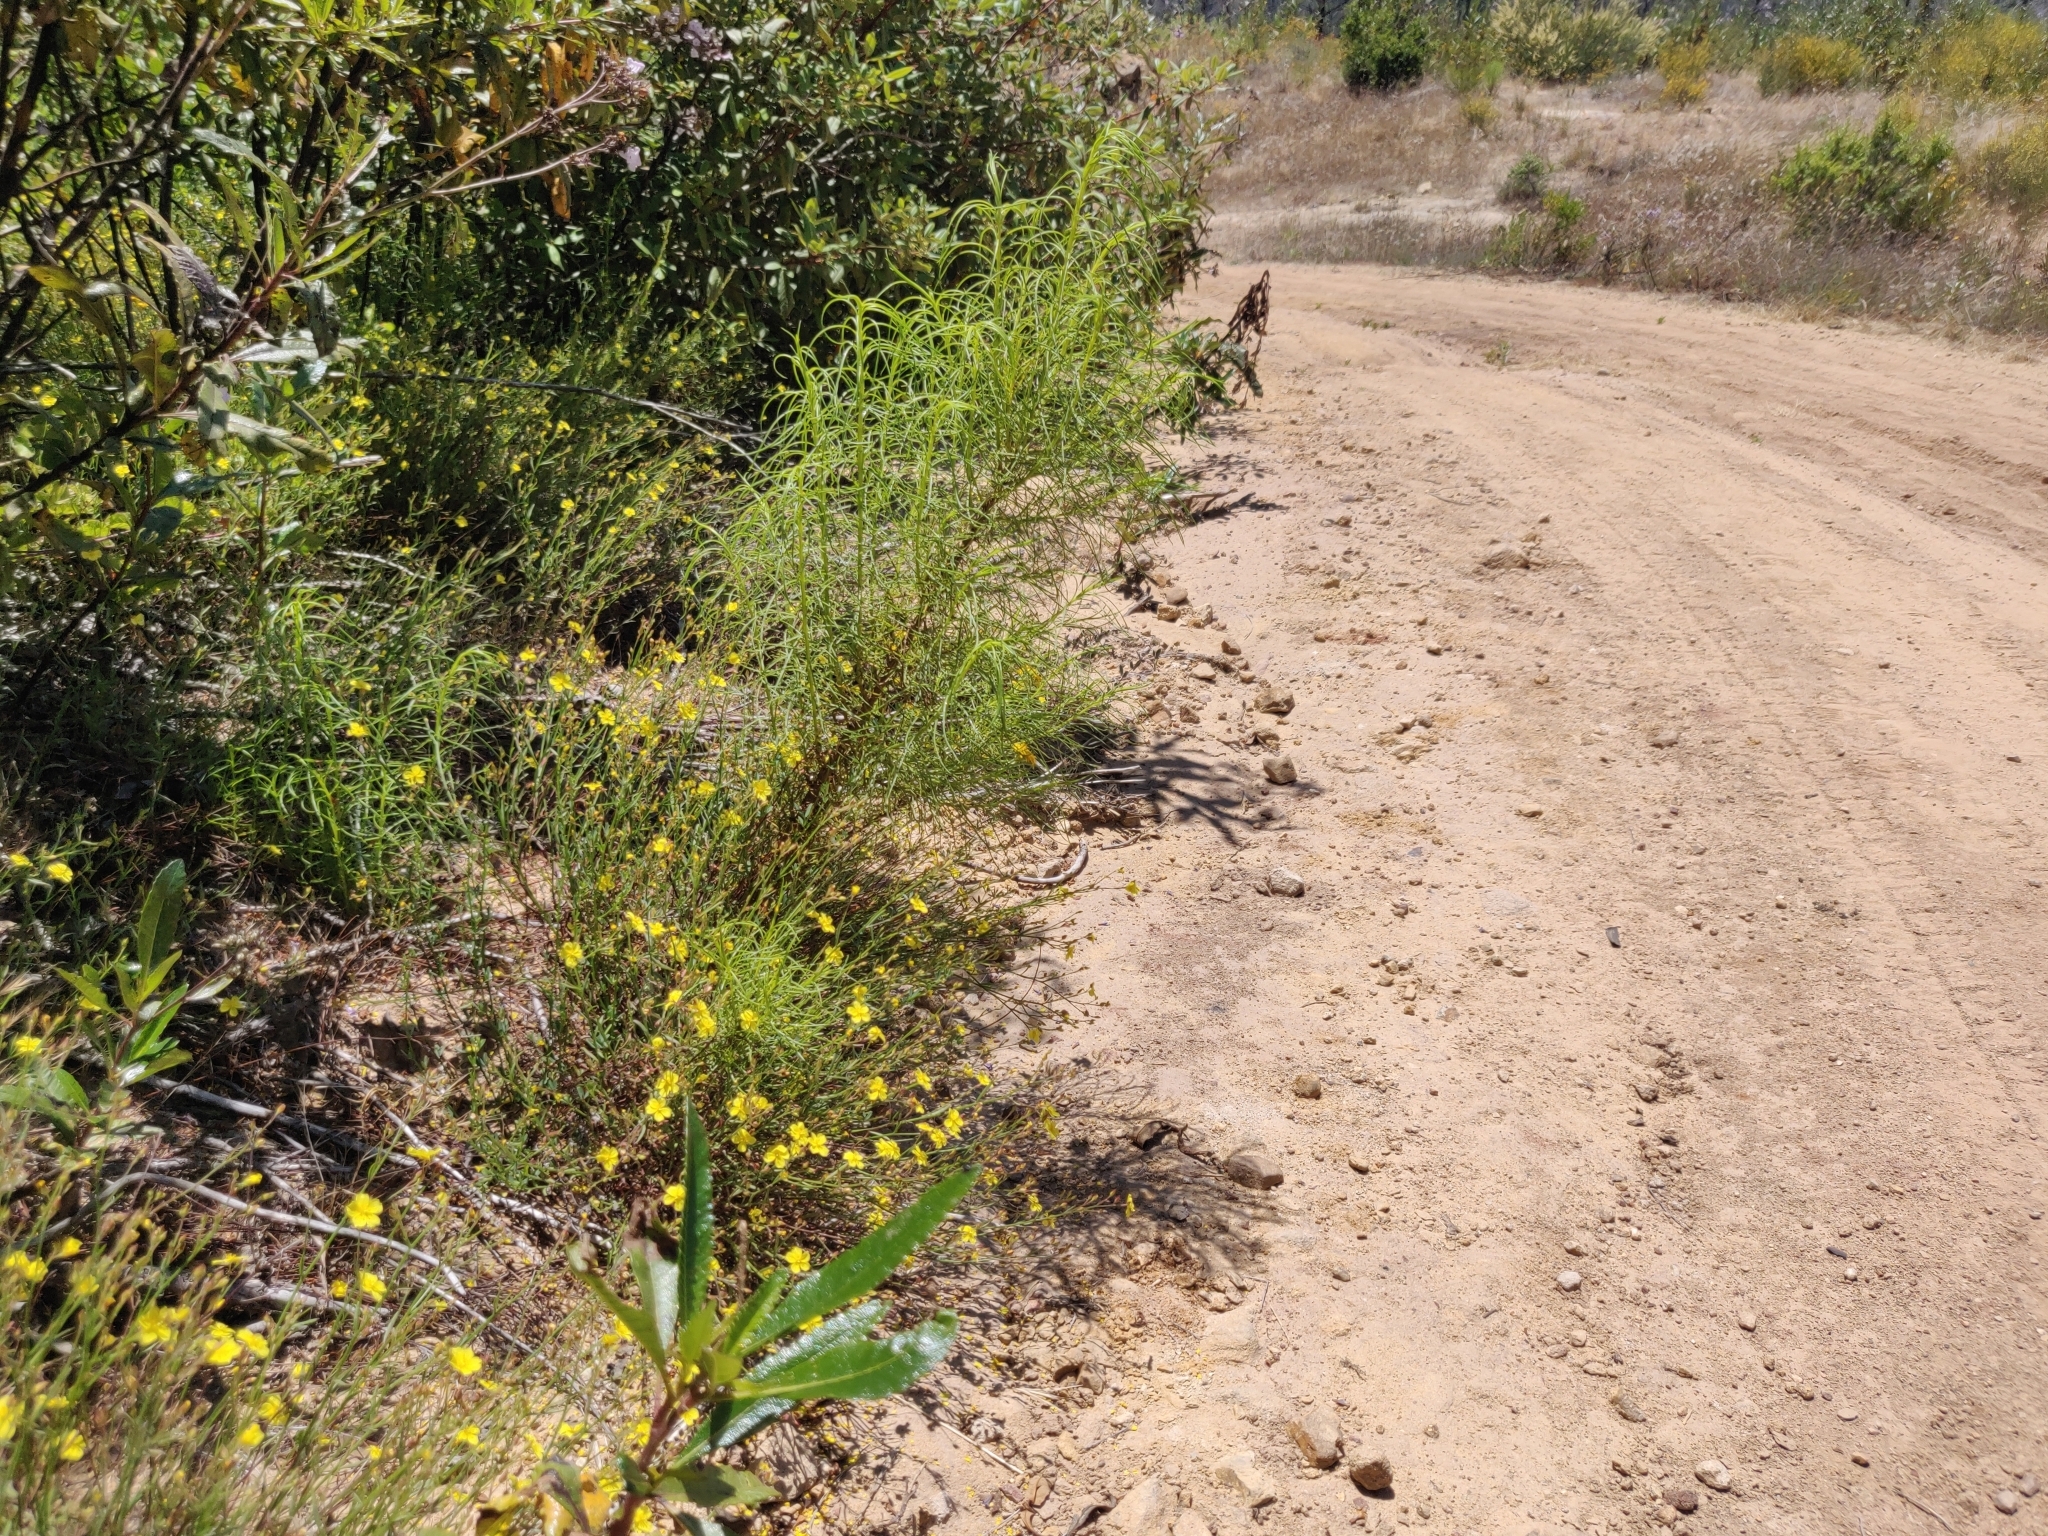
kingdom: Plantae
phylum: Tracheophyta
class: Magnoliopsida
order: Malvales
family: Cistaceae
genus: Crocanthemum
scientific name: Crocanthemum scoparium
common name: Broom-rose
